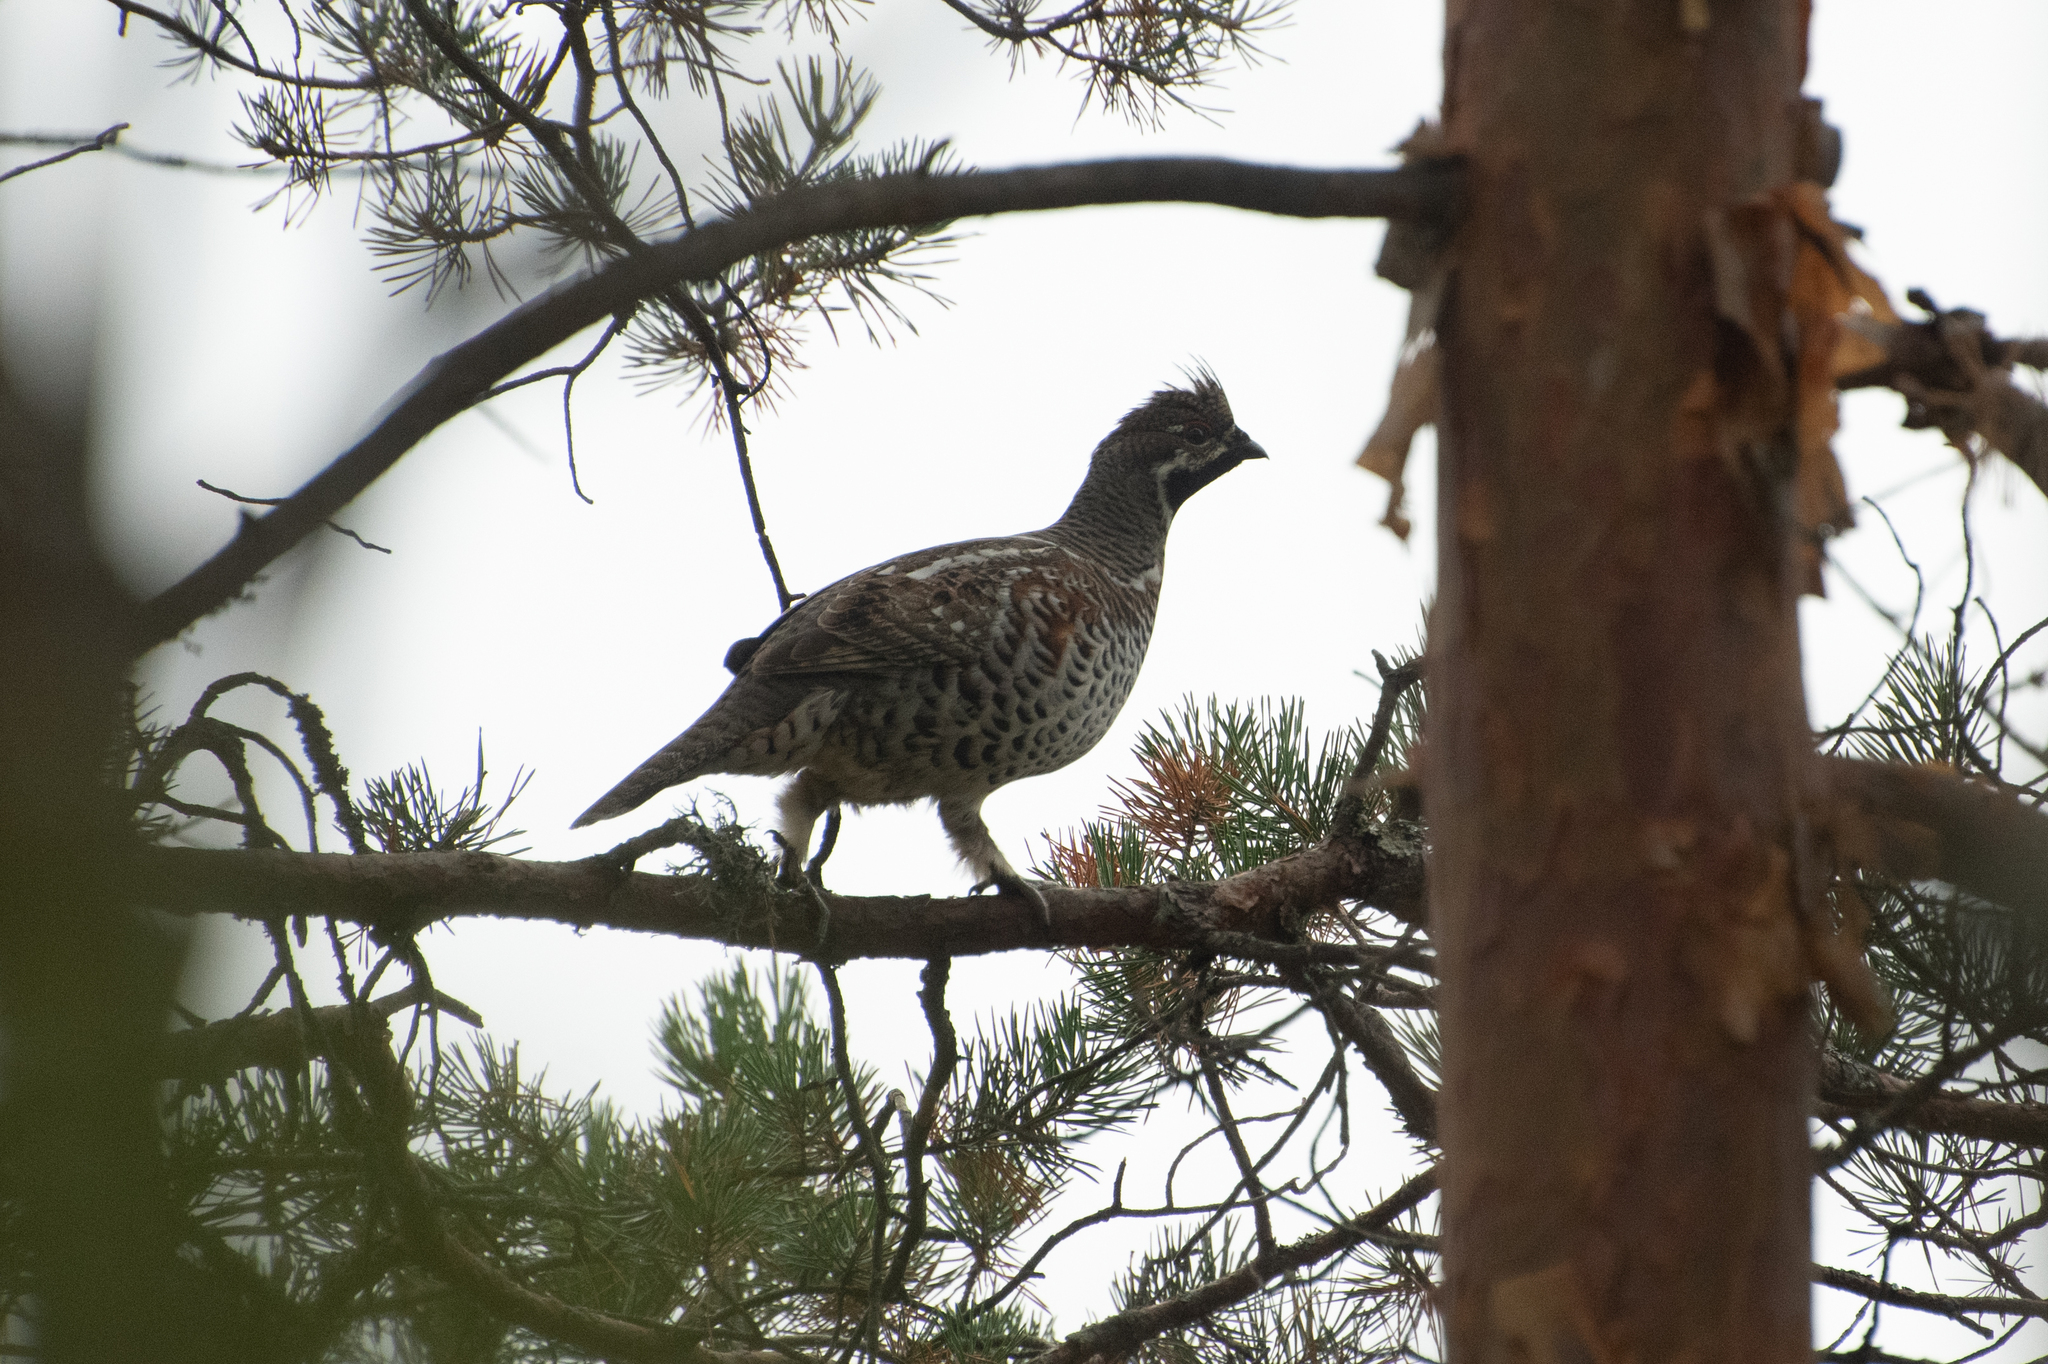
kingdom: Animalia
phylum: Chordata
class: Aves
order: Galliformes
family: Phasianidae
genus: Tetrastes
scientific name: Tetrastes bonasia
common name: Hazel grouse
